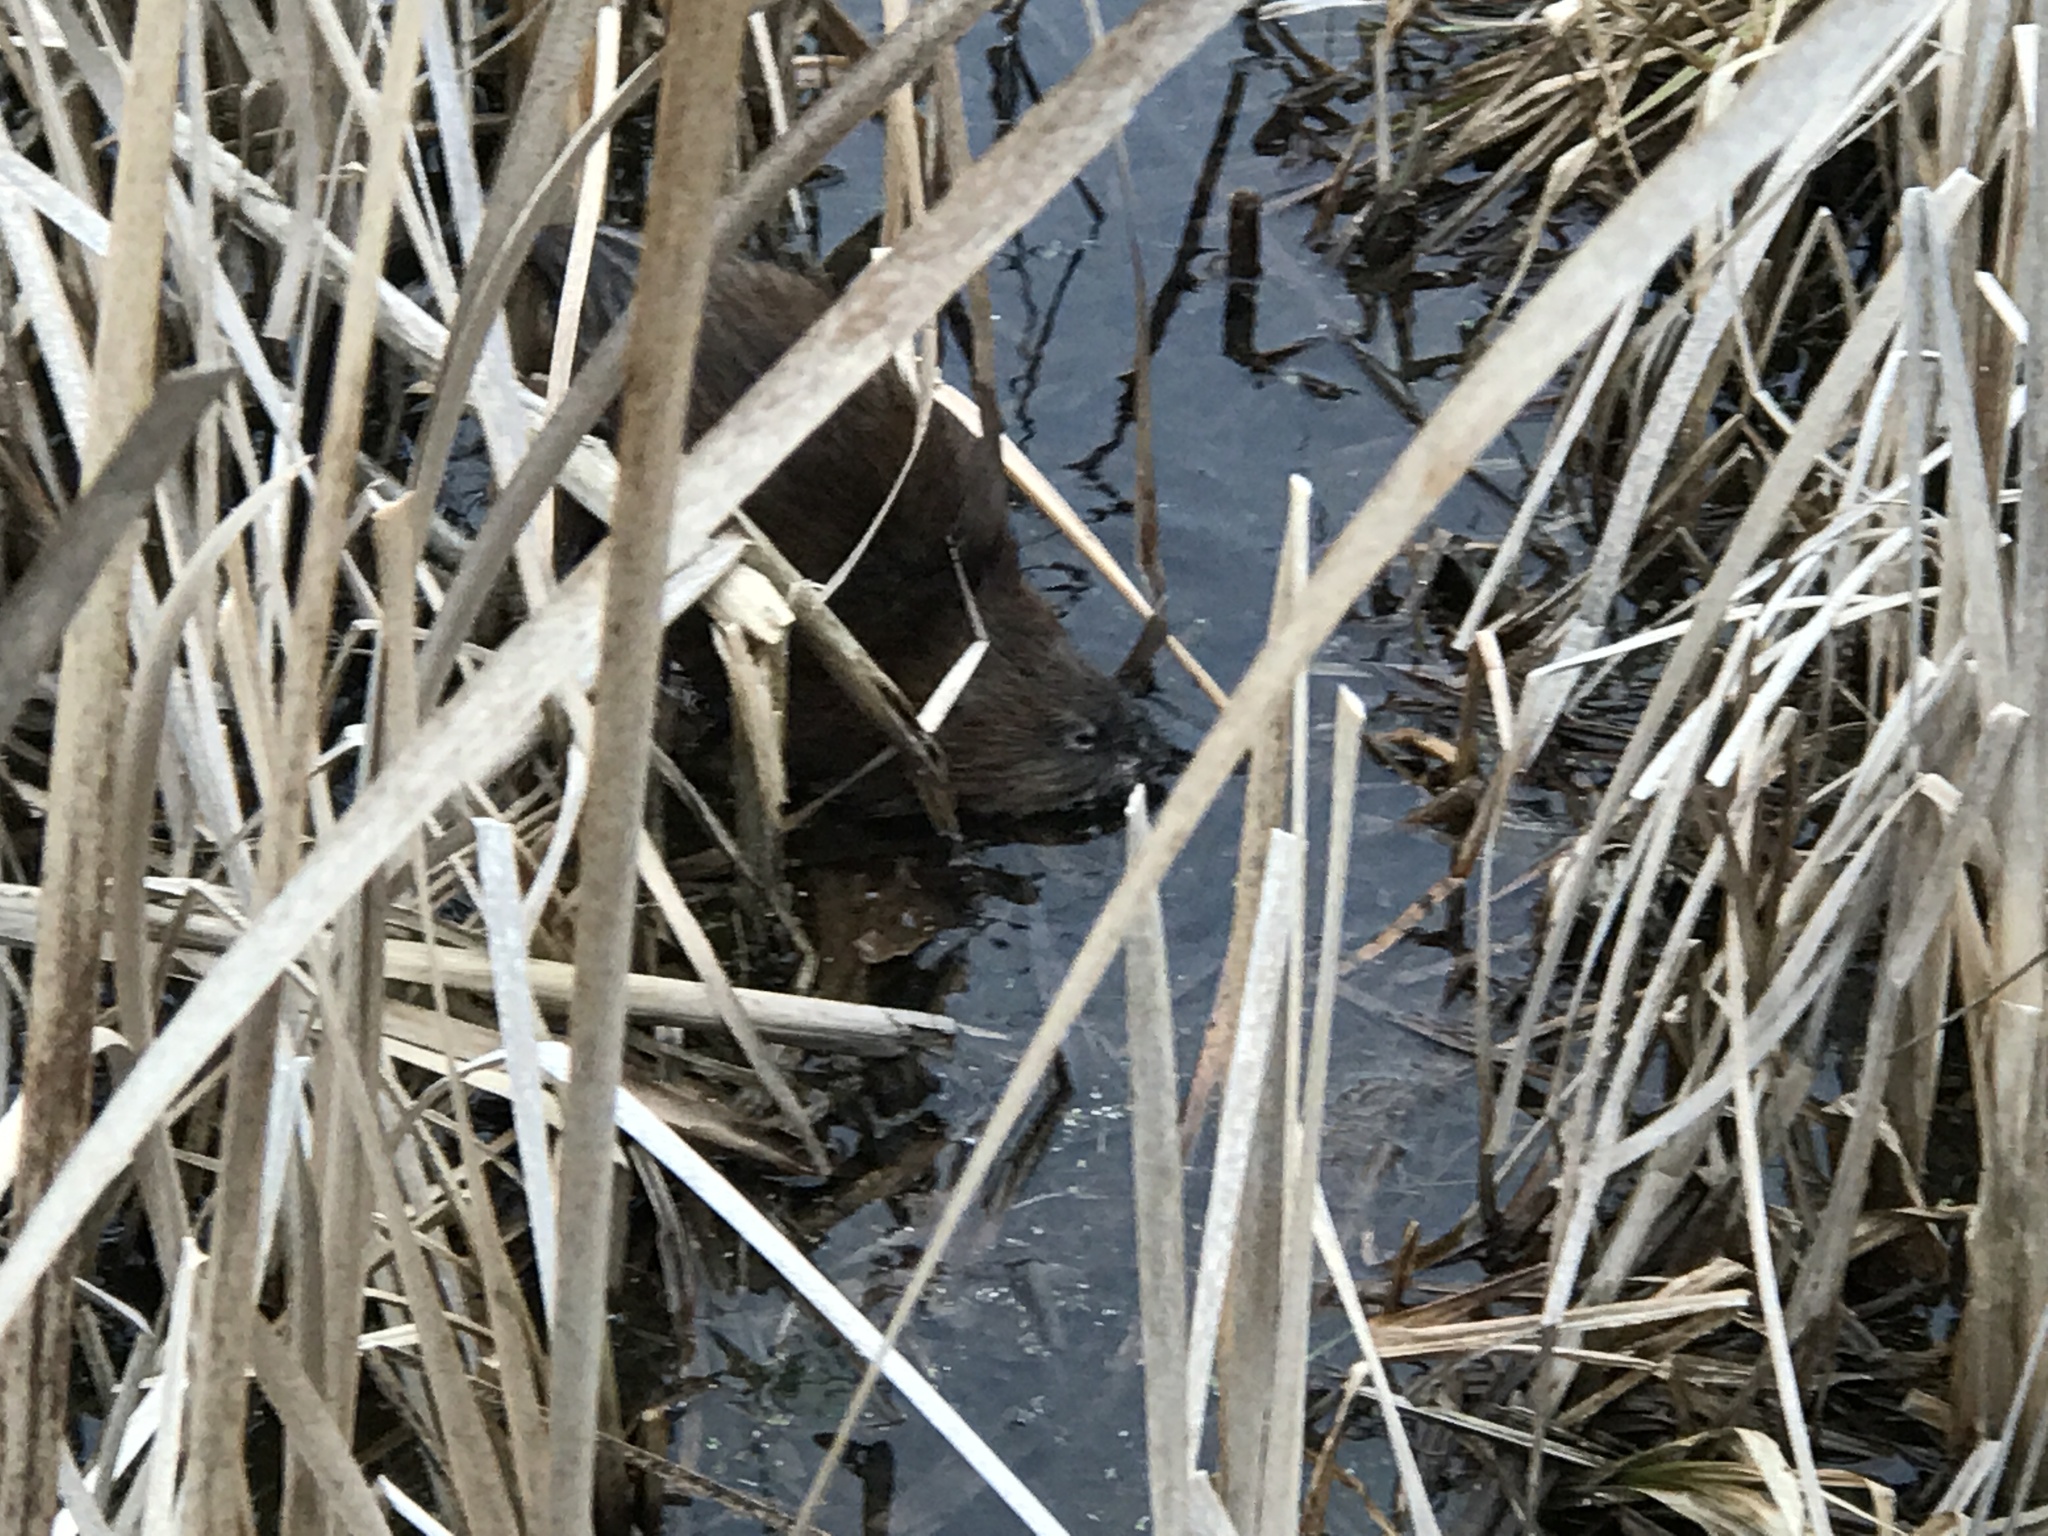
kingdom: Animalia
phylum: Chordata
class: Mammalia
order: Rodentia
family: Cricetidae
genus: Ondatra
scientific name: Ondatra zibethicus
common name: Muskrat
